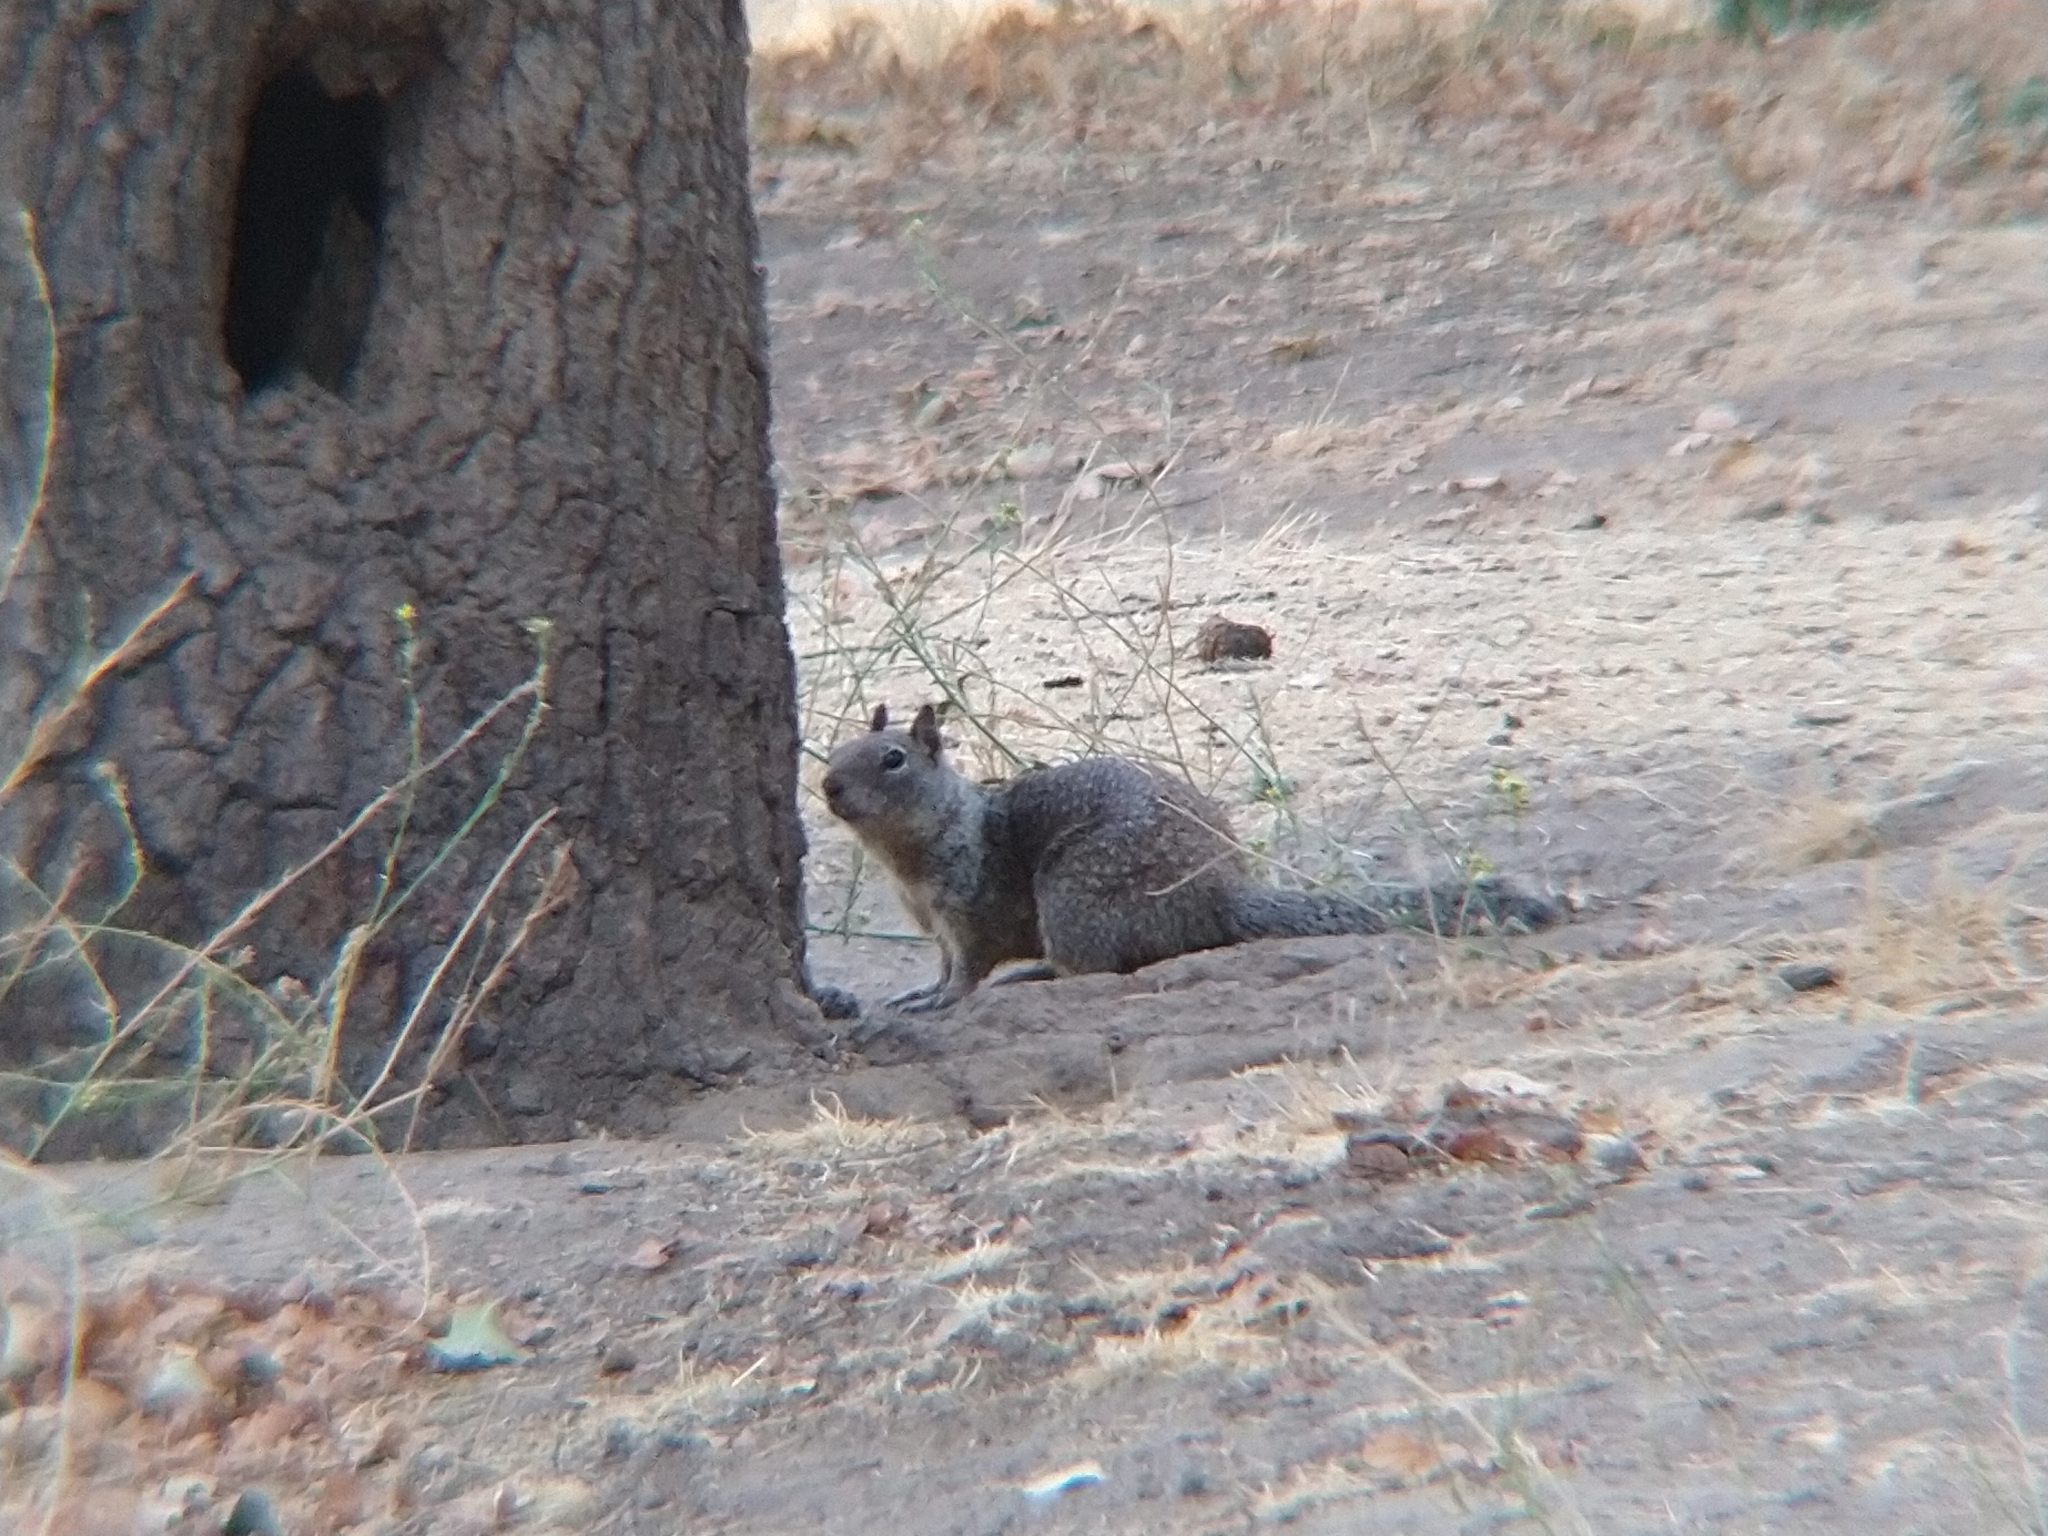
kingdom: Animalia
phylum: Chordata
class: Mammalia
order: Rodentia
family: Sciuridae
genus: Otospermophilus
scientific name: Otospermophilus beecheyi
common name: California ground squirrel
